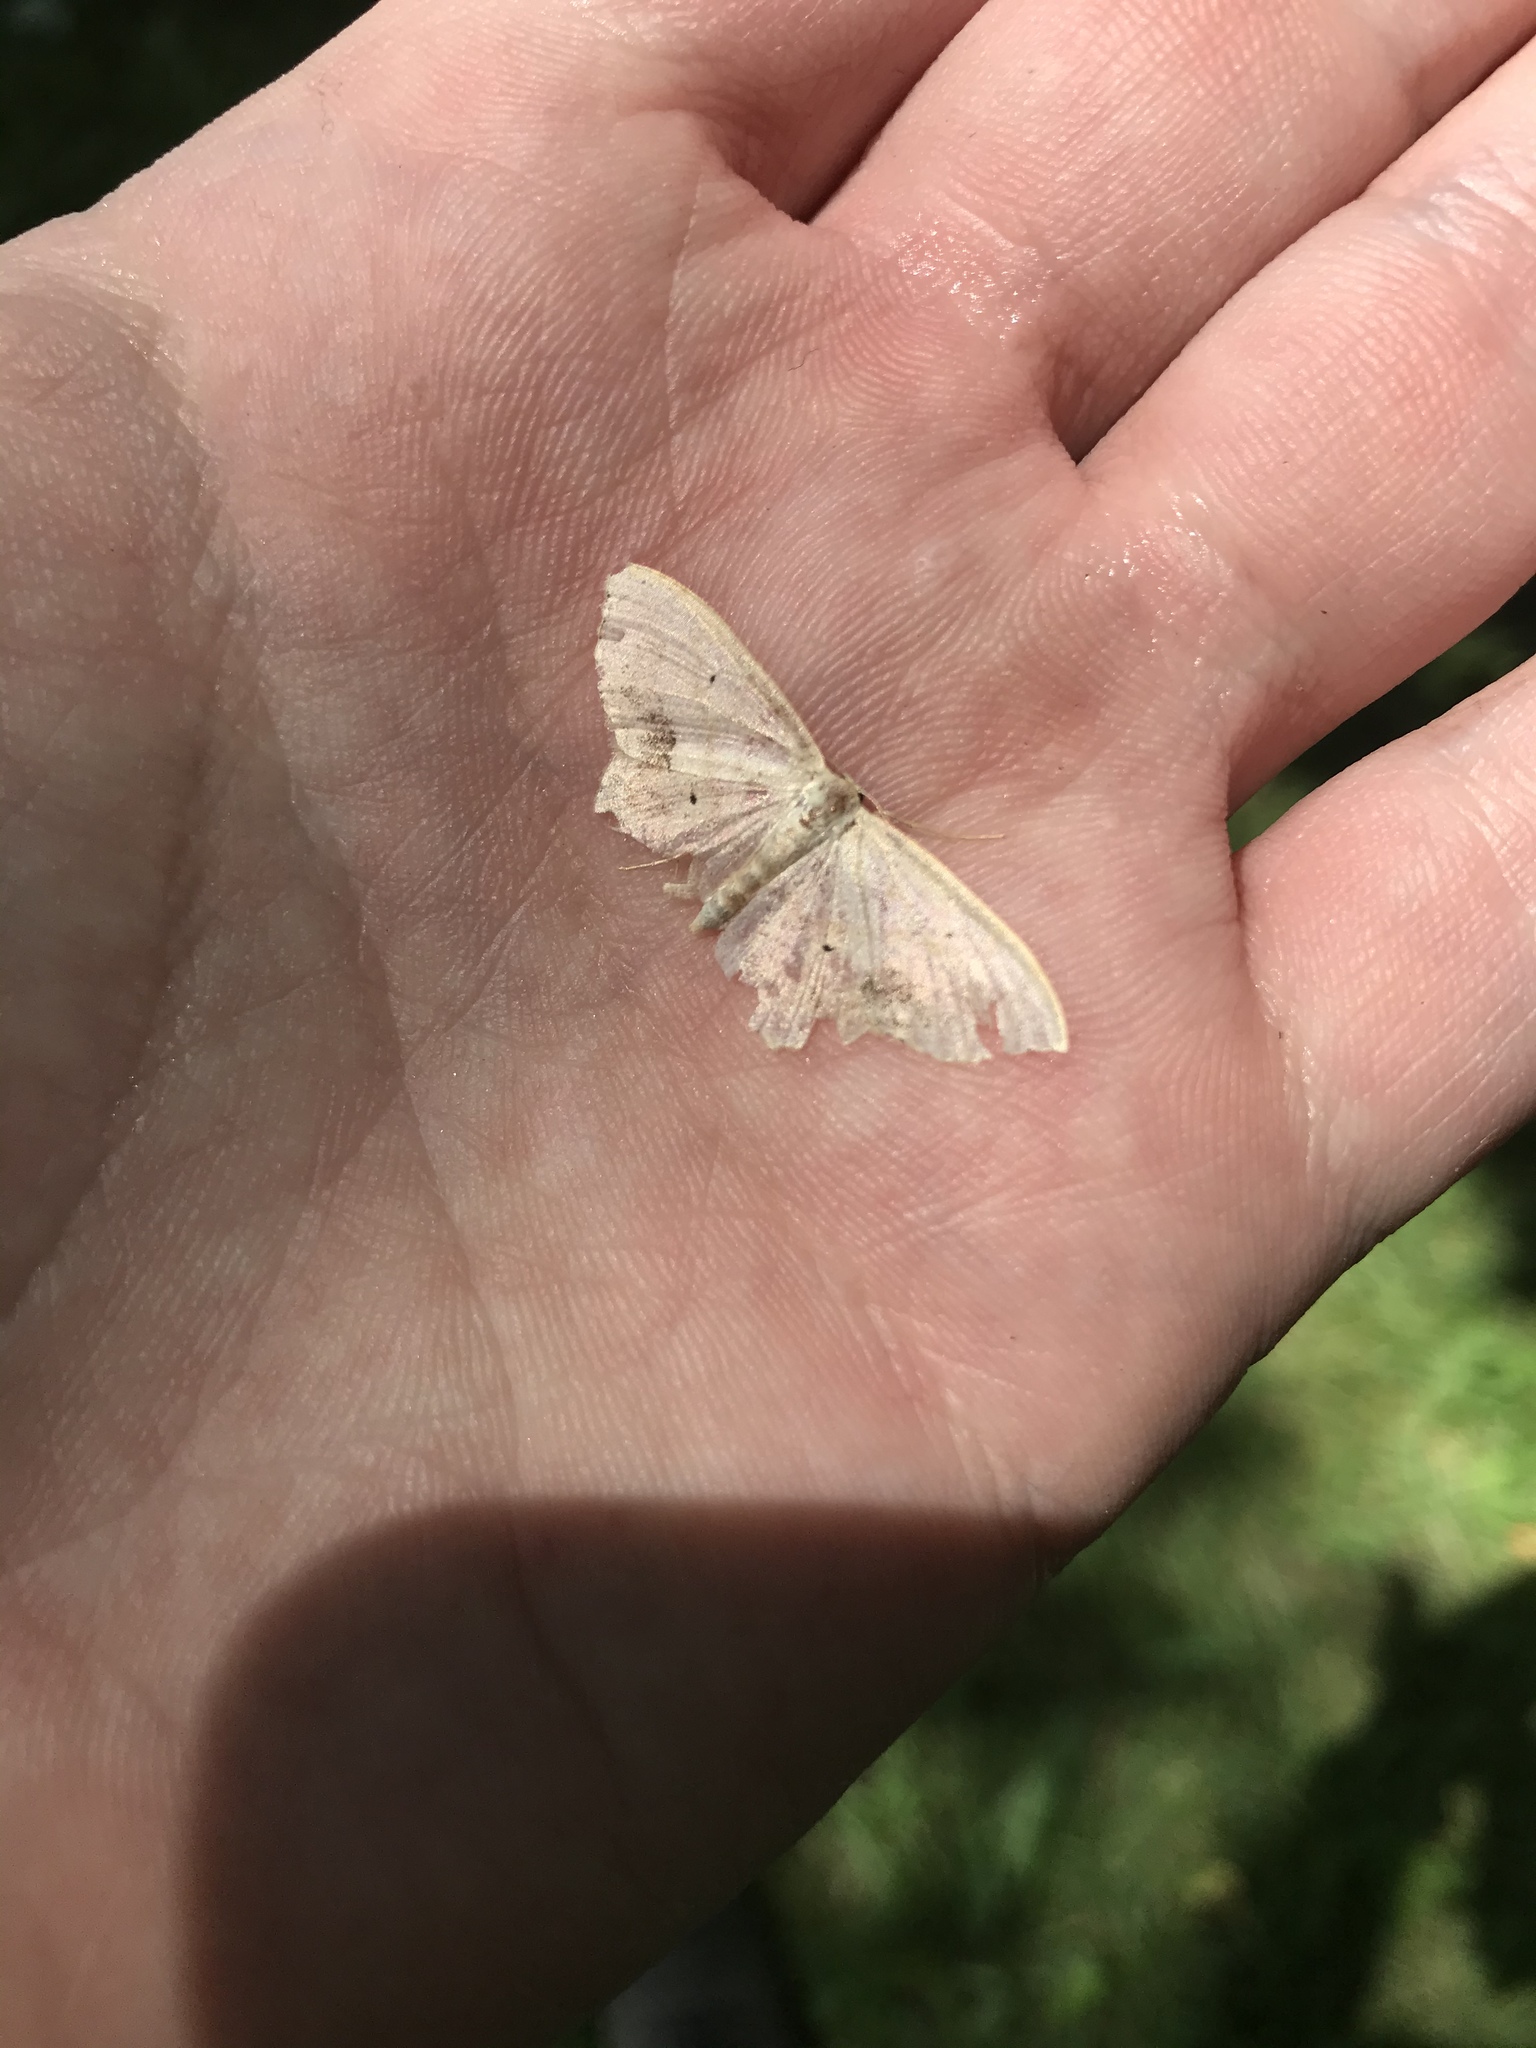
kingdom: Animalia
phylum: Arthropoda
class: Insecta
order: Lepidoptera
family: Geometridae
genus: Scopula
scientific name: Scopula limboundata
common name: Large lace border
